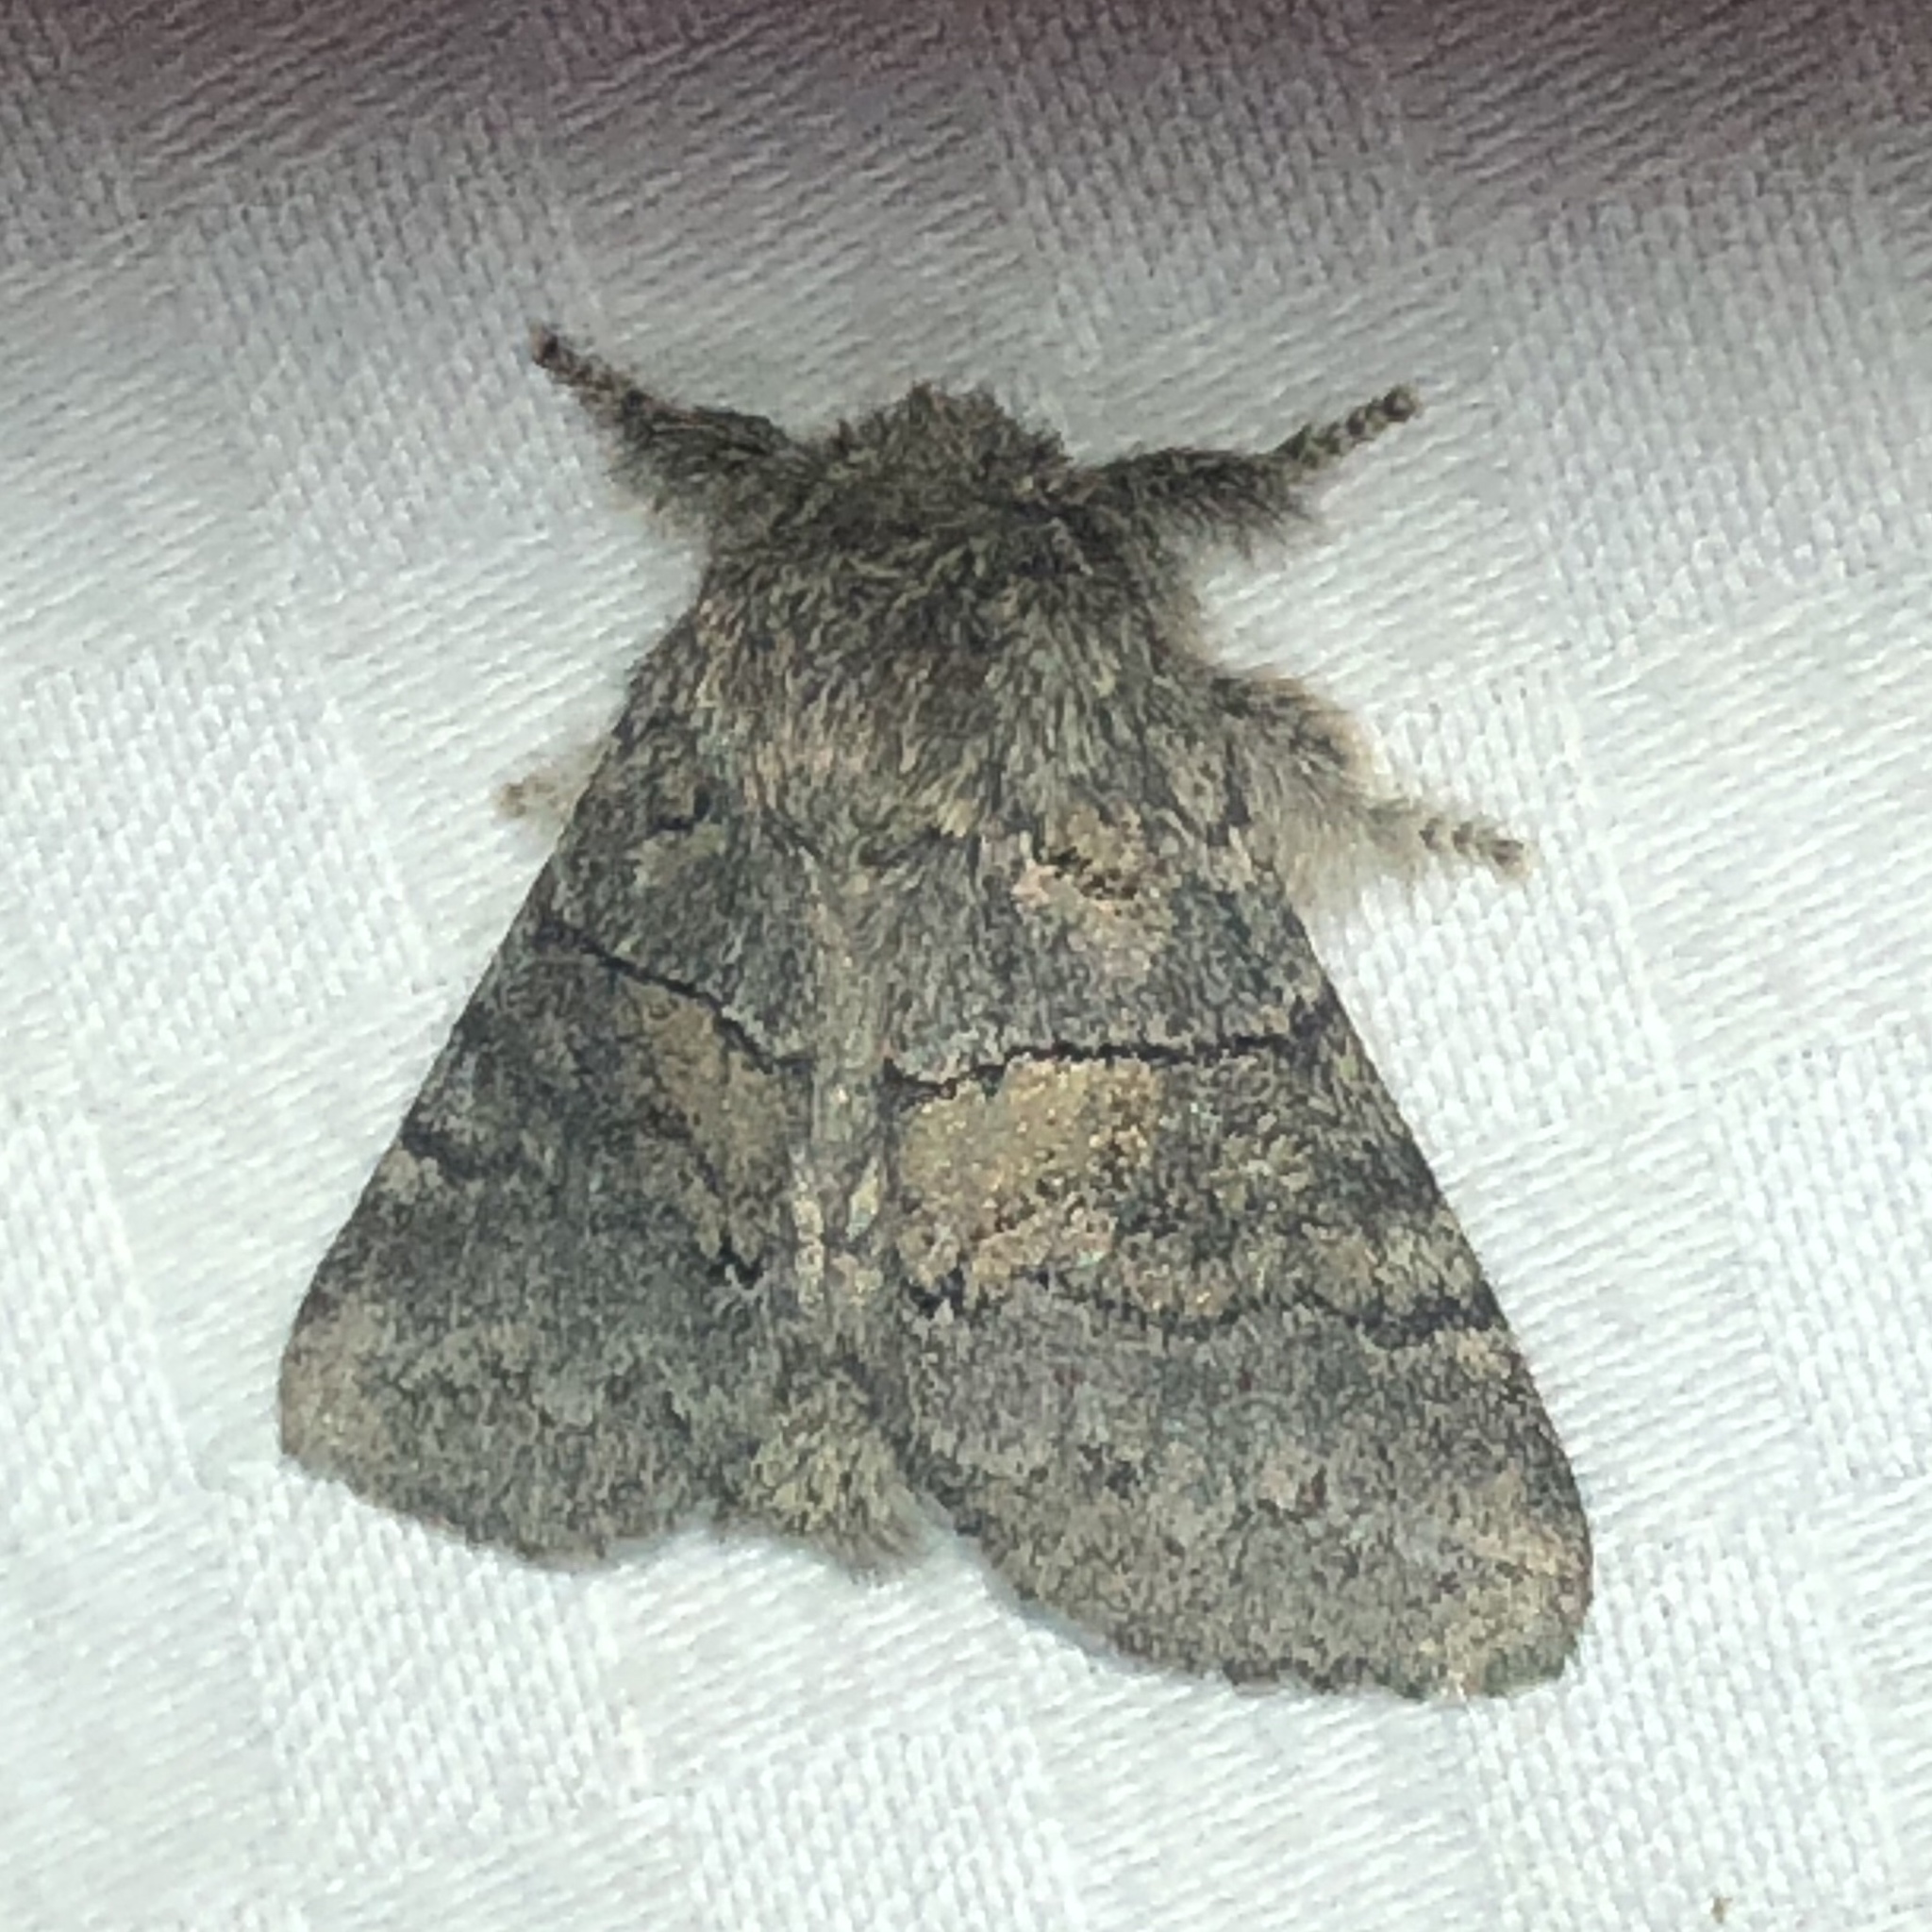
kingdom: Animalia
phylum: Arthropoda
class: Insecta
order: Lepidoptera
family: Notodontidae
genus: Gluphisia
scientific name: Gluphisia septentrionis
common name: Common gluphisia
